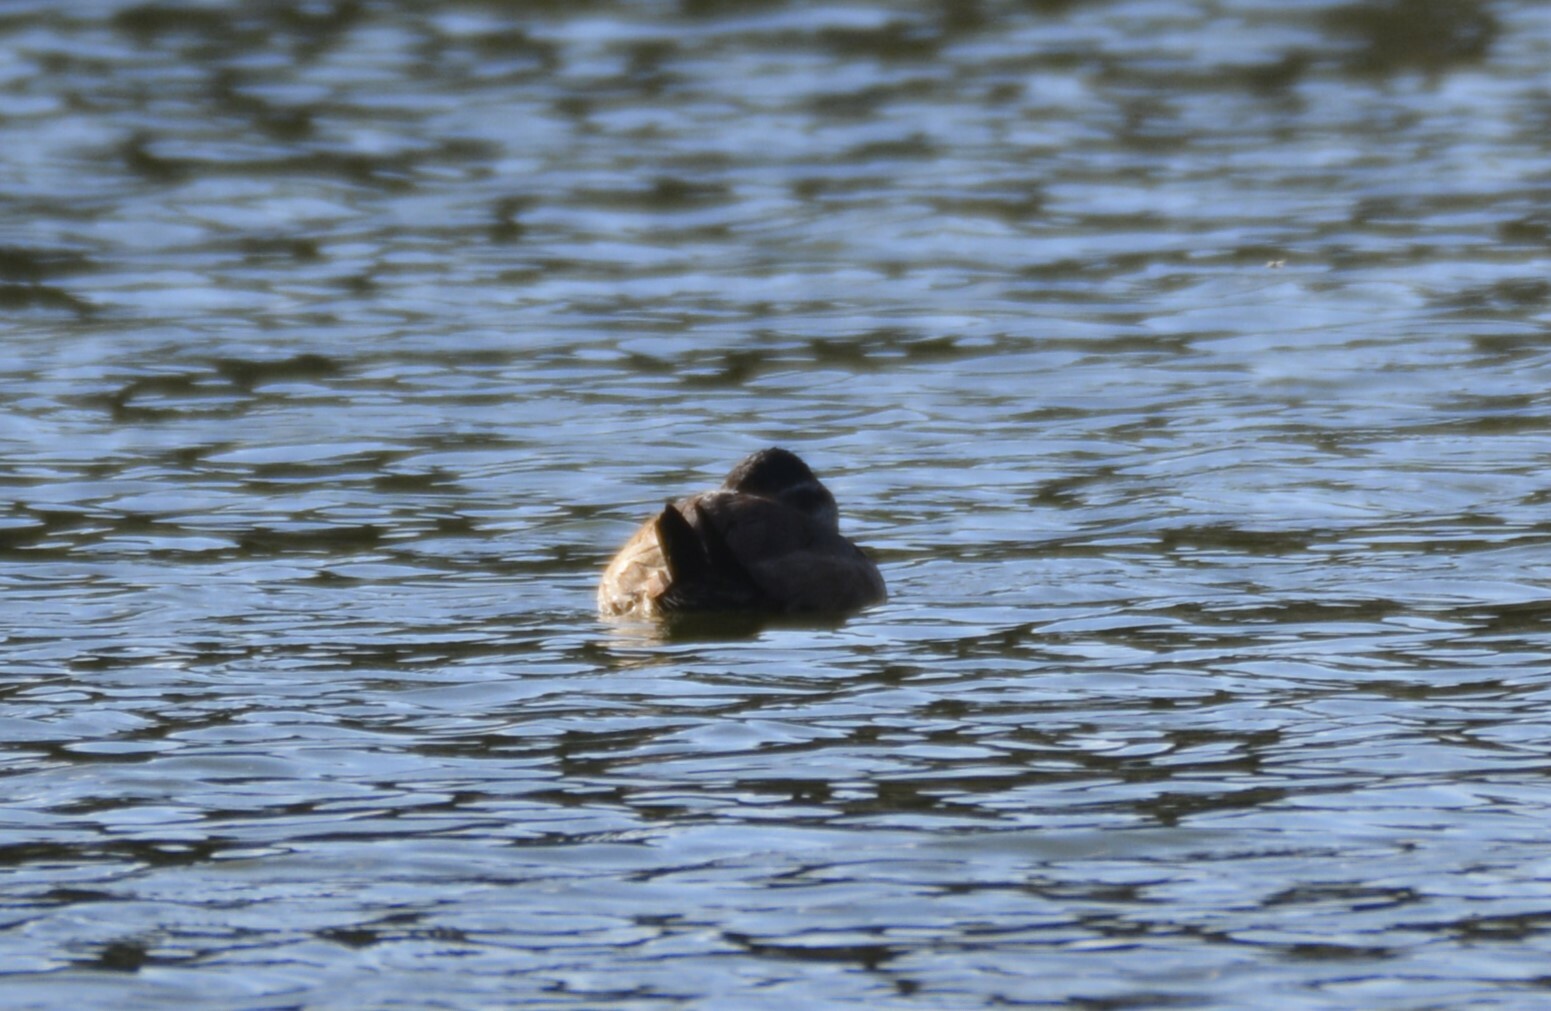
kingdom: Animalia
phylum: Chordata
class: Aves
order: Anseriformes
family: Anatidae
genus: Oxyura
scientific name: Oxyura leucocephala
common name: White-headed duck
